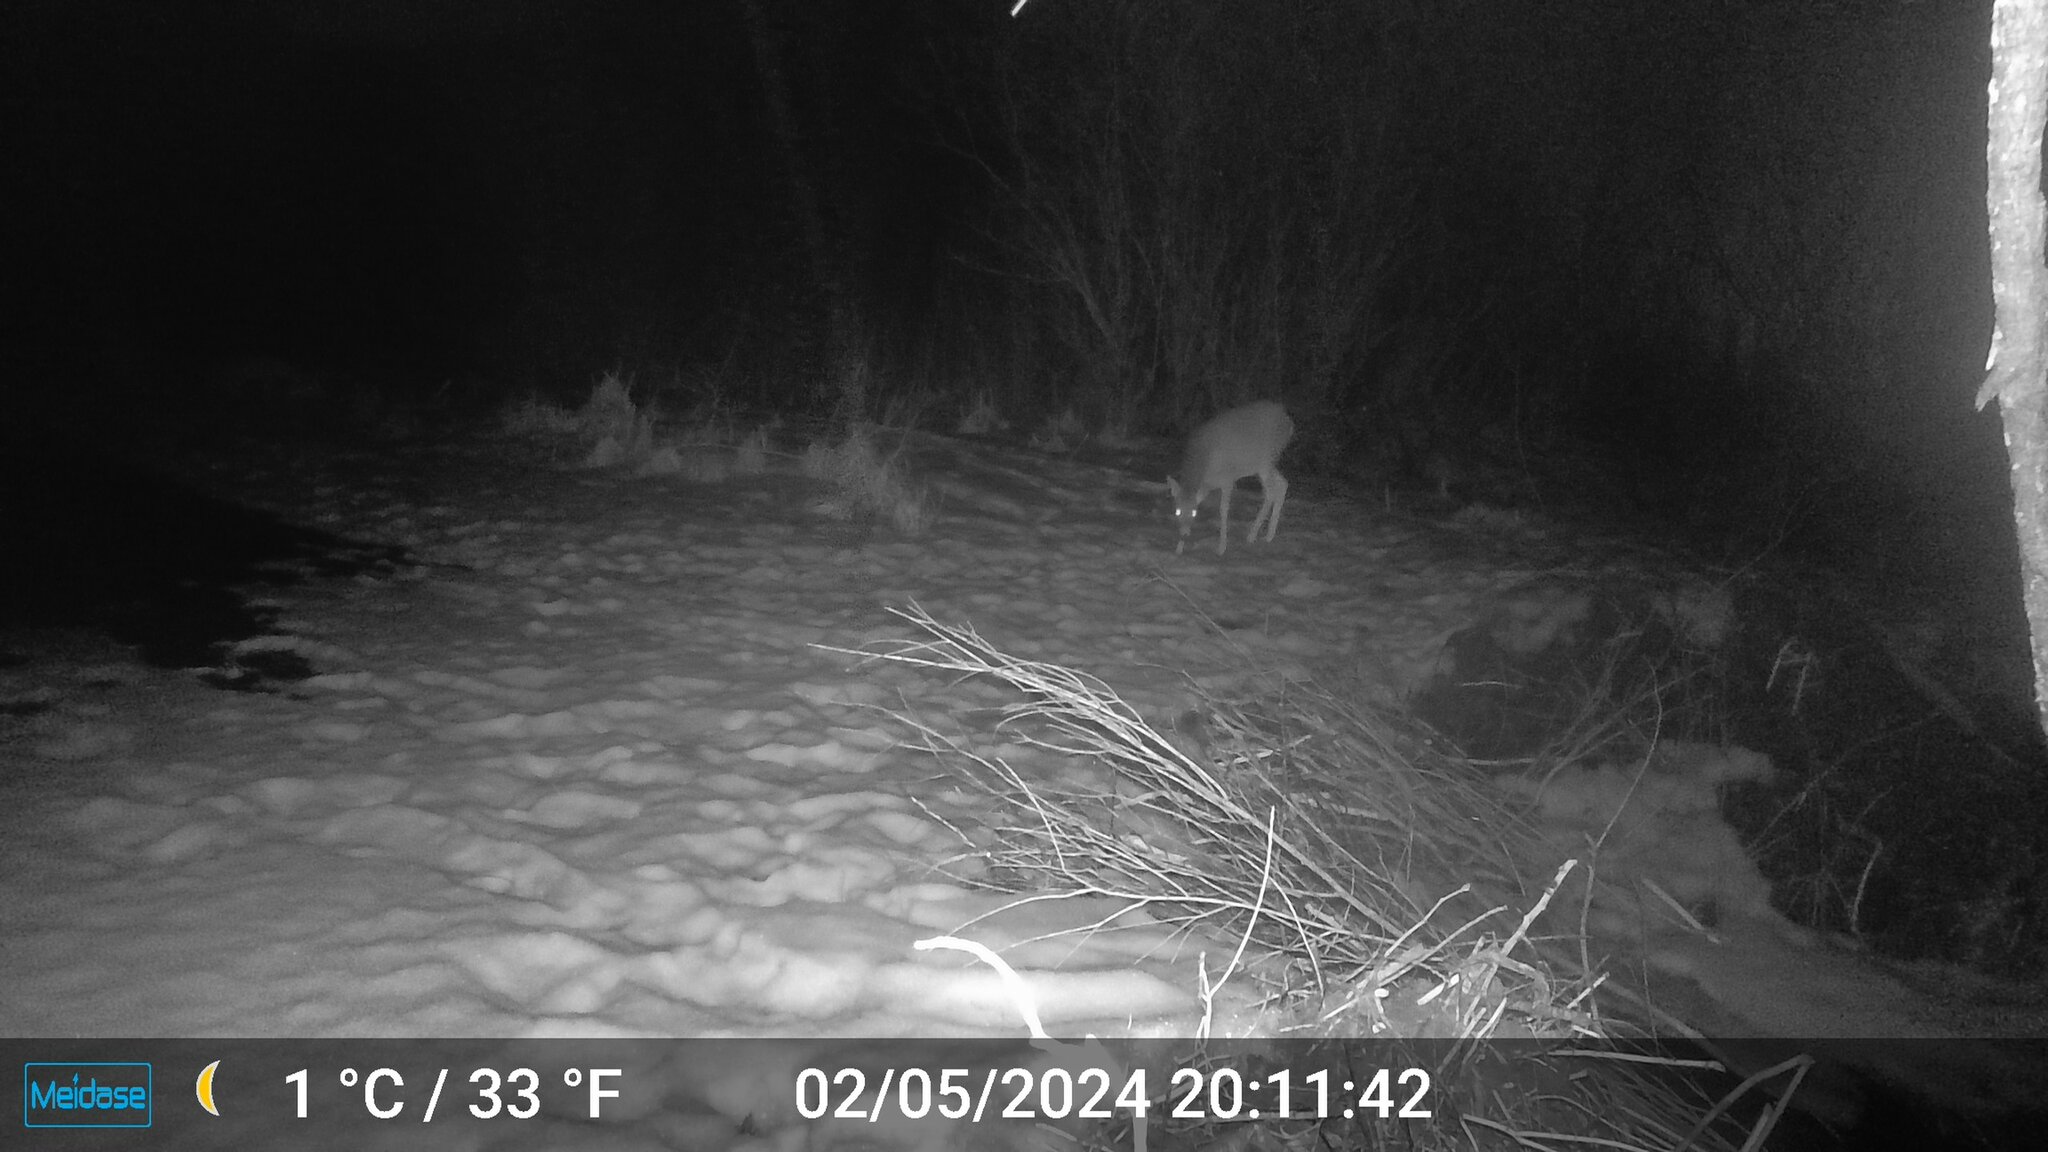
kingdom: Animalia
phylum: Chordata
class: Mammalia
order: Artiodactyla
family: Cervidae
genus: Odocoileus
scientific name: Odocoileus virginianus
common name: White-tailed deer
